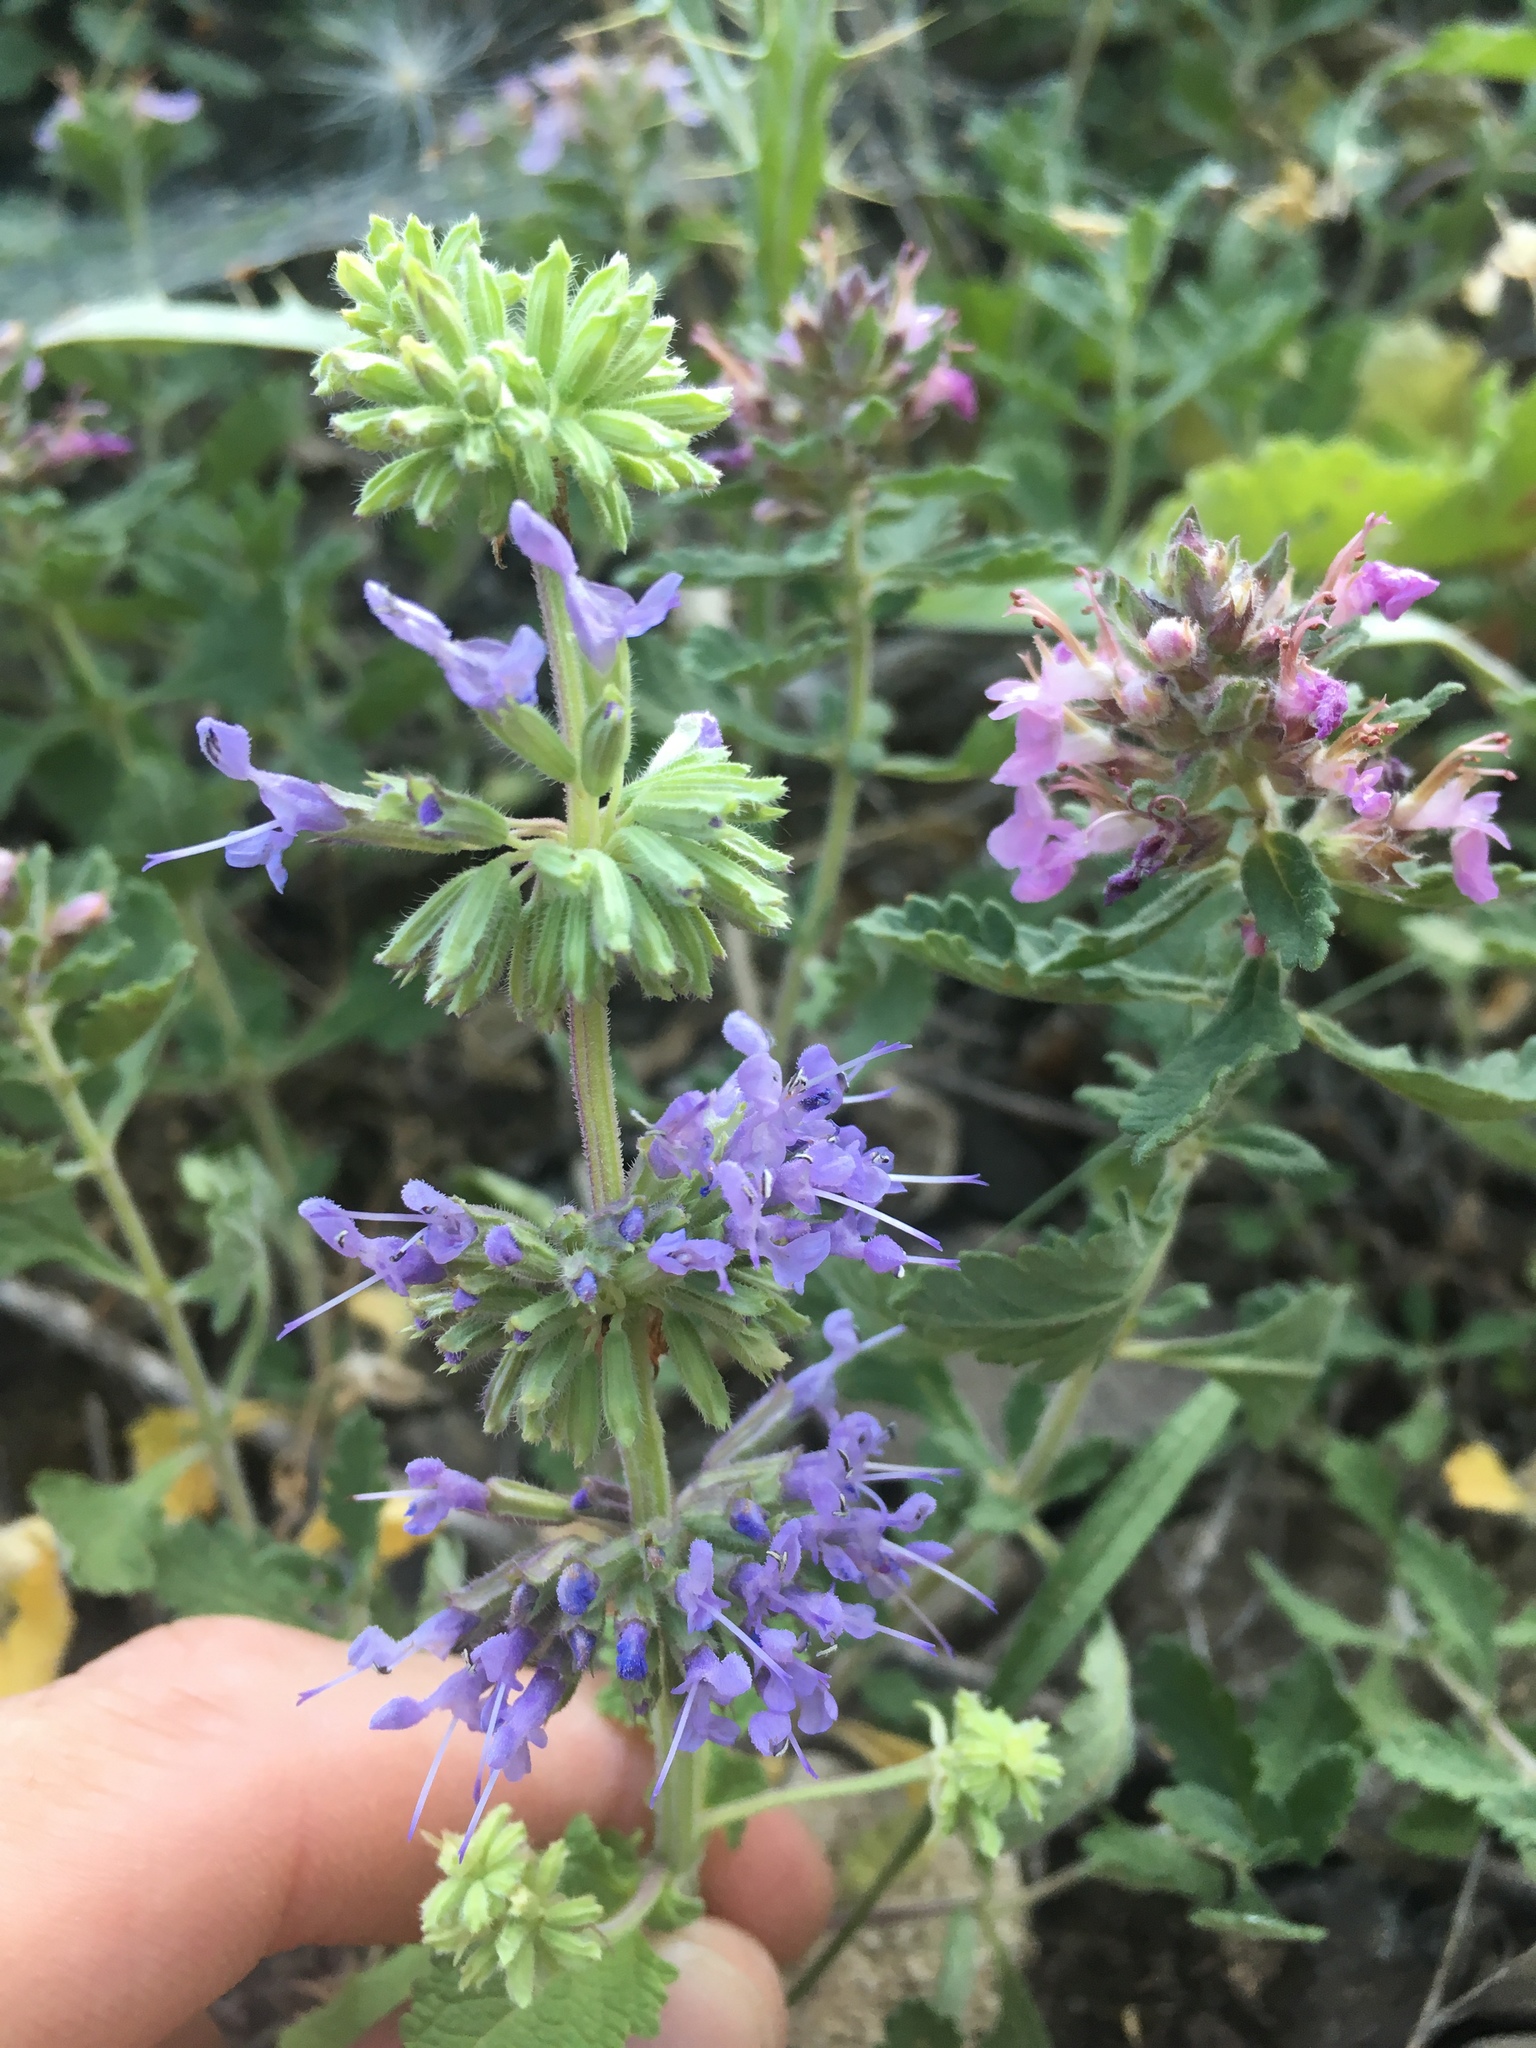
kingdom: Plantae
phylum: Tracheophyta
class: Magnoliopsida
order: Lamiales
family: Lamiaceae
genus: Salvia
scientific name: Salvia verticillata
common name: Whorled clary
